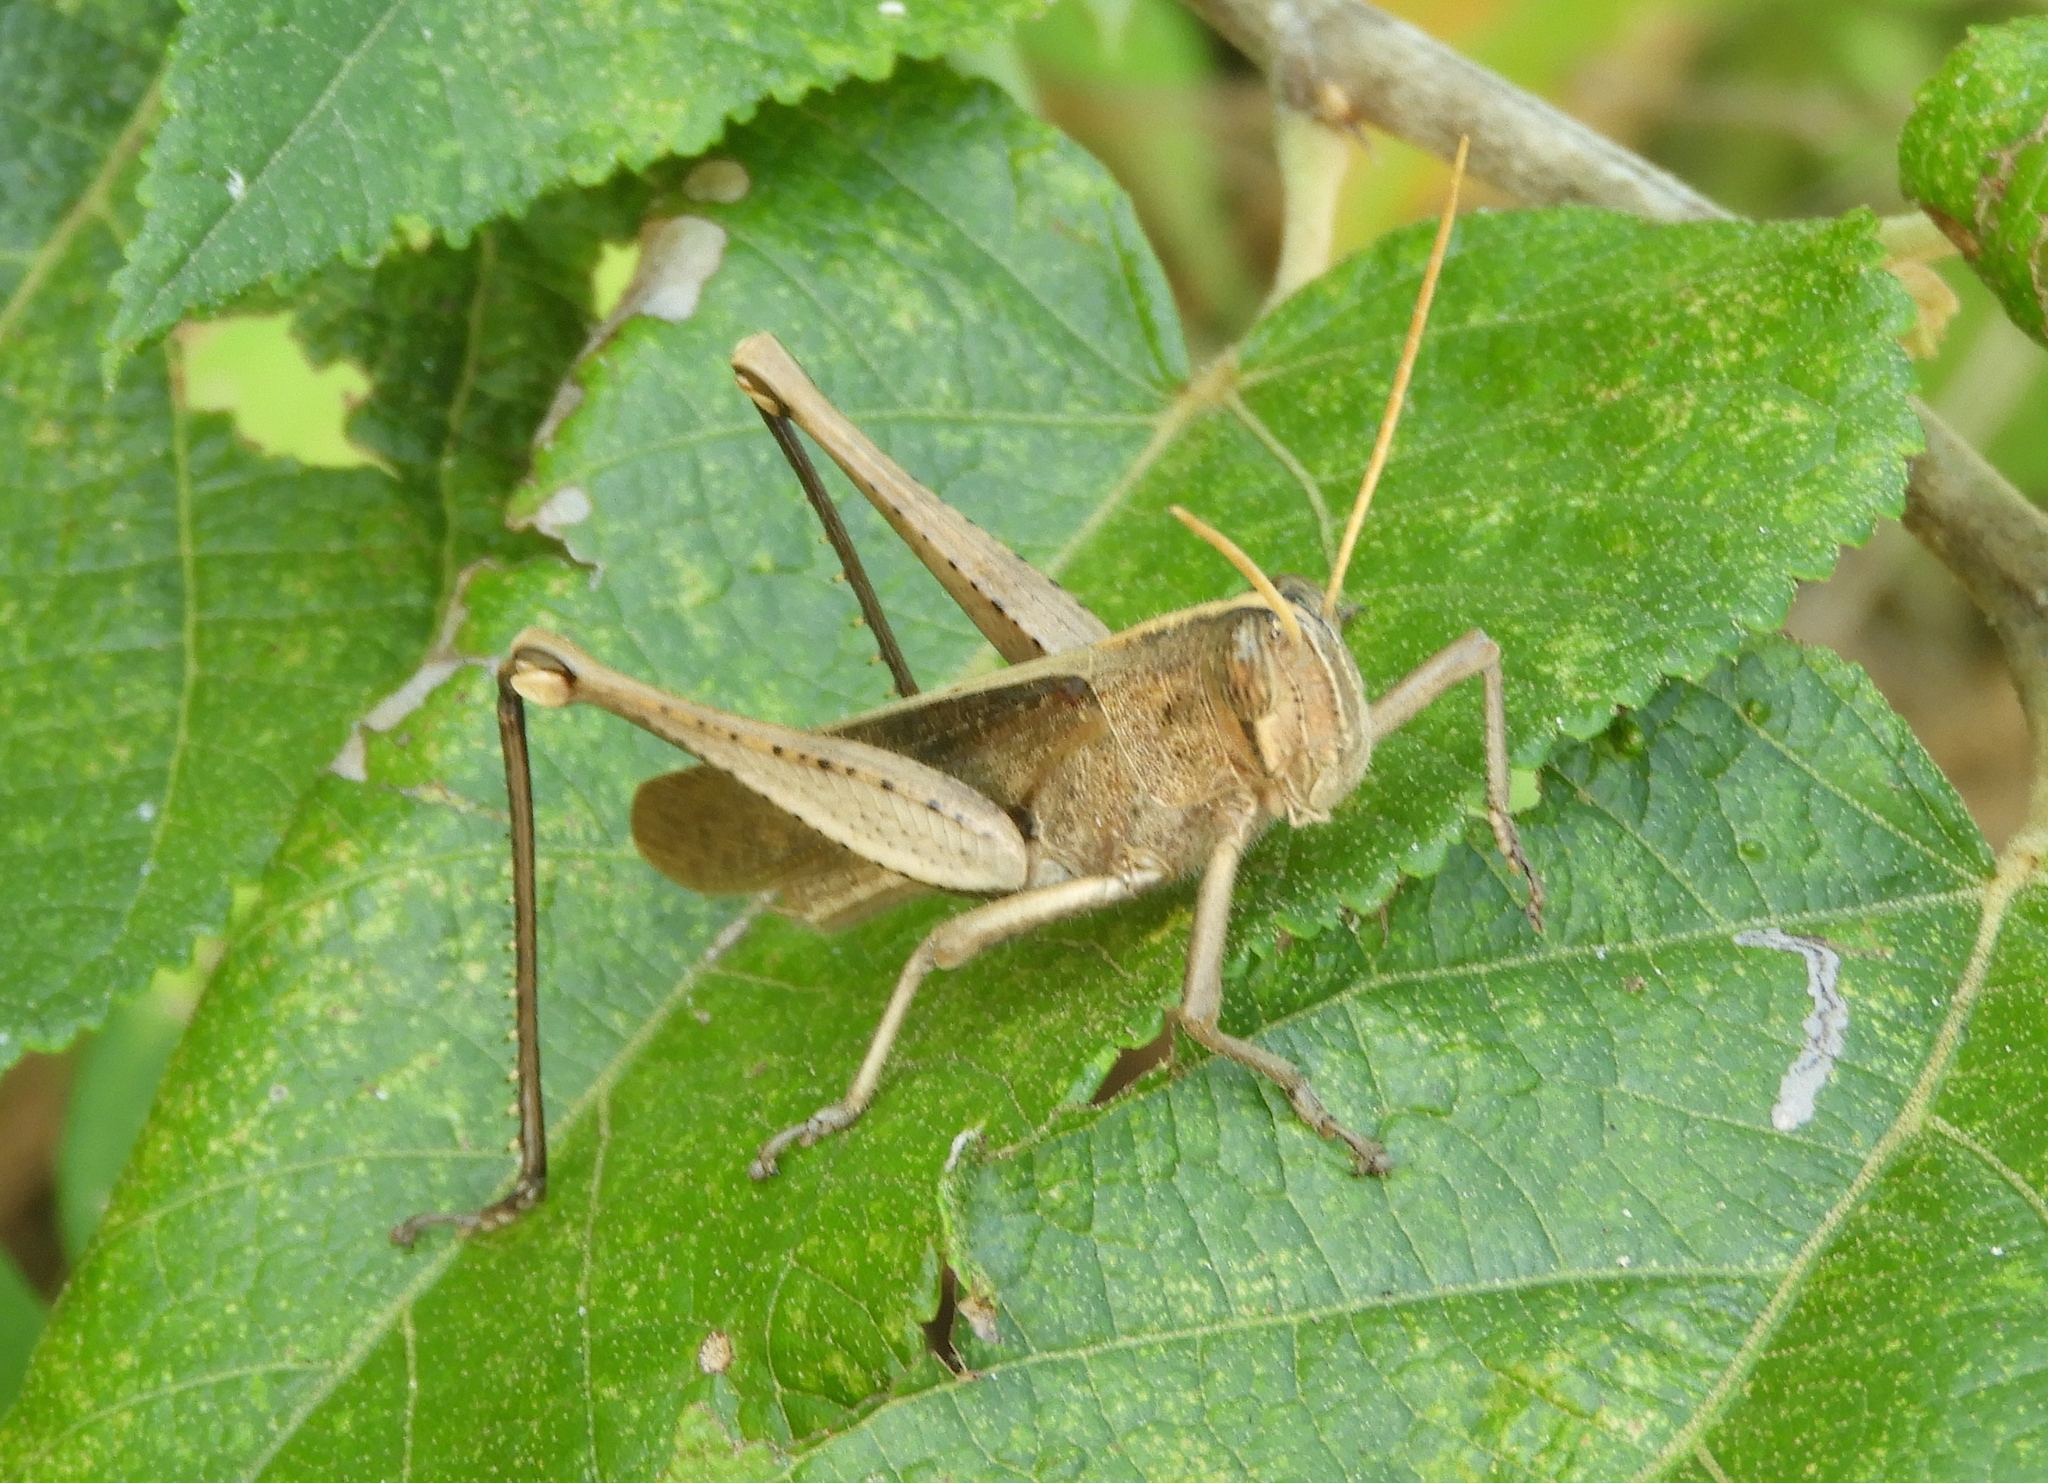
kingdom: Animalia
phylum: Arthropoda
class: Insecta
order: Orthoptera
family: Acrididae
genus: Schistocerca
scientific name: Schistocerca camerata
